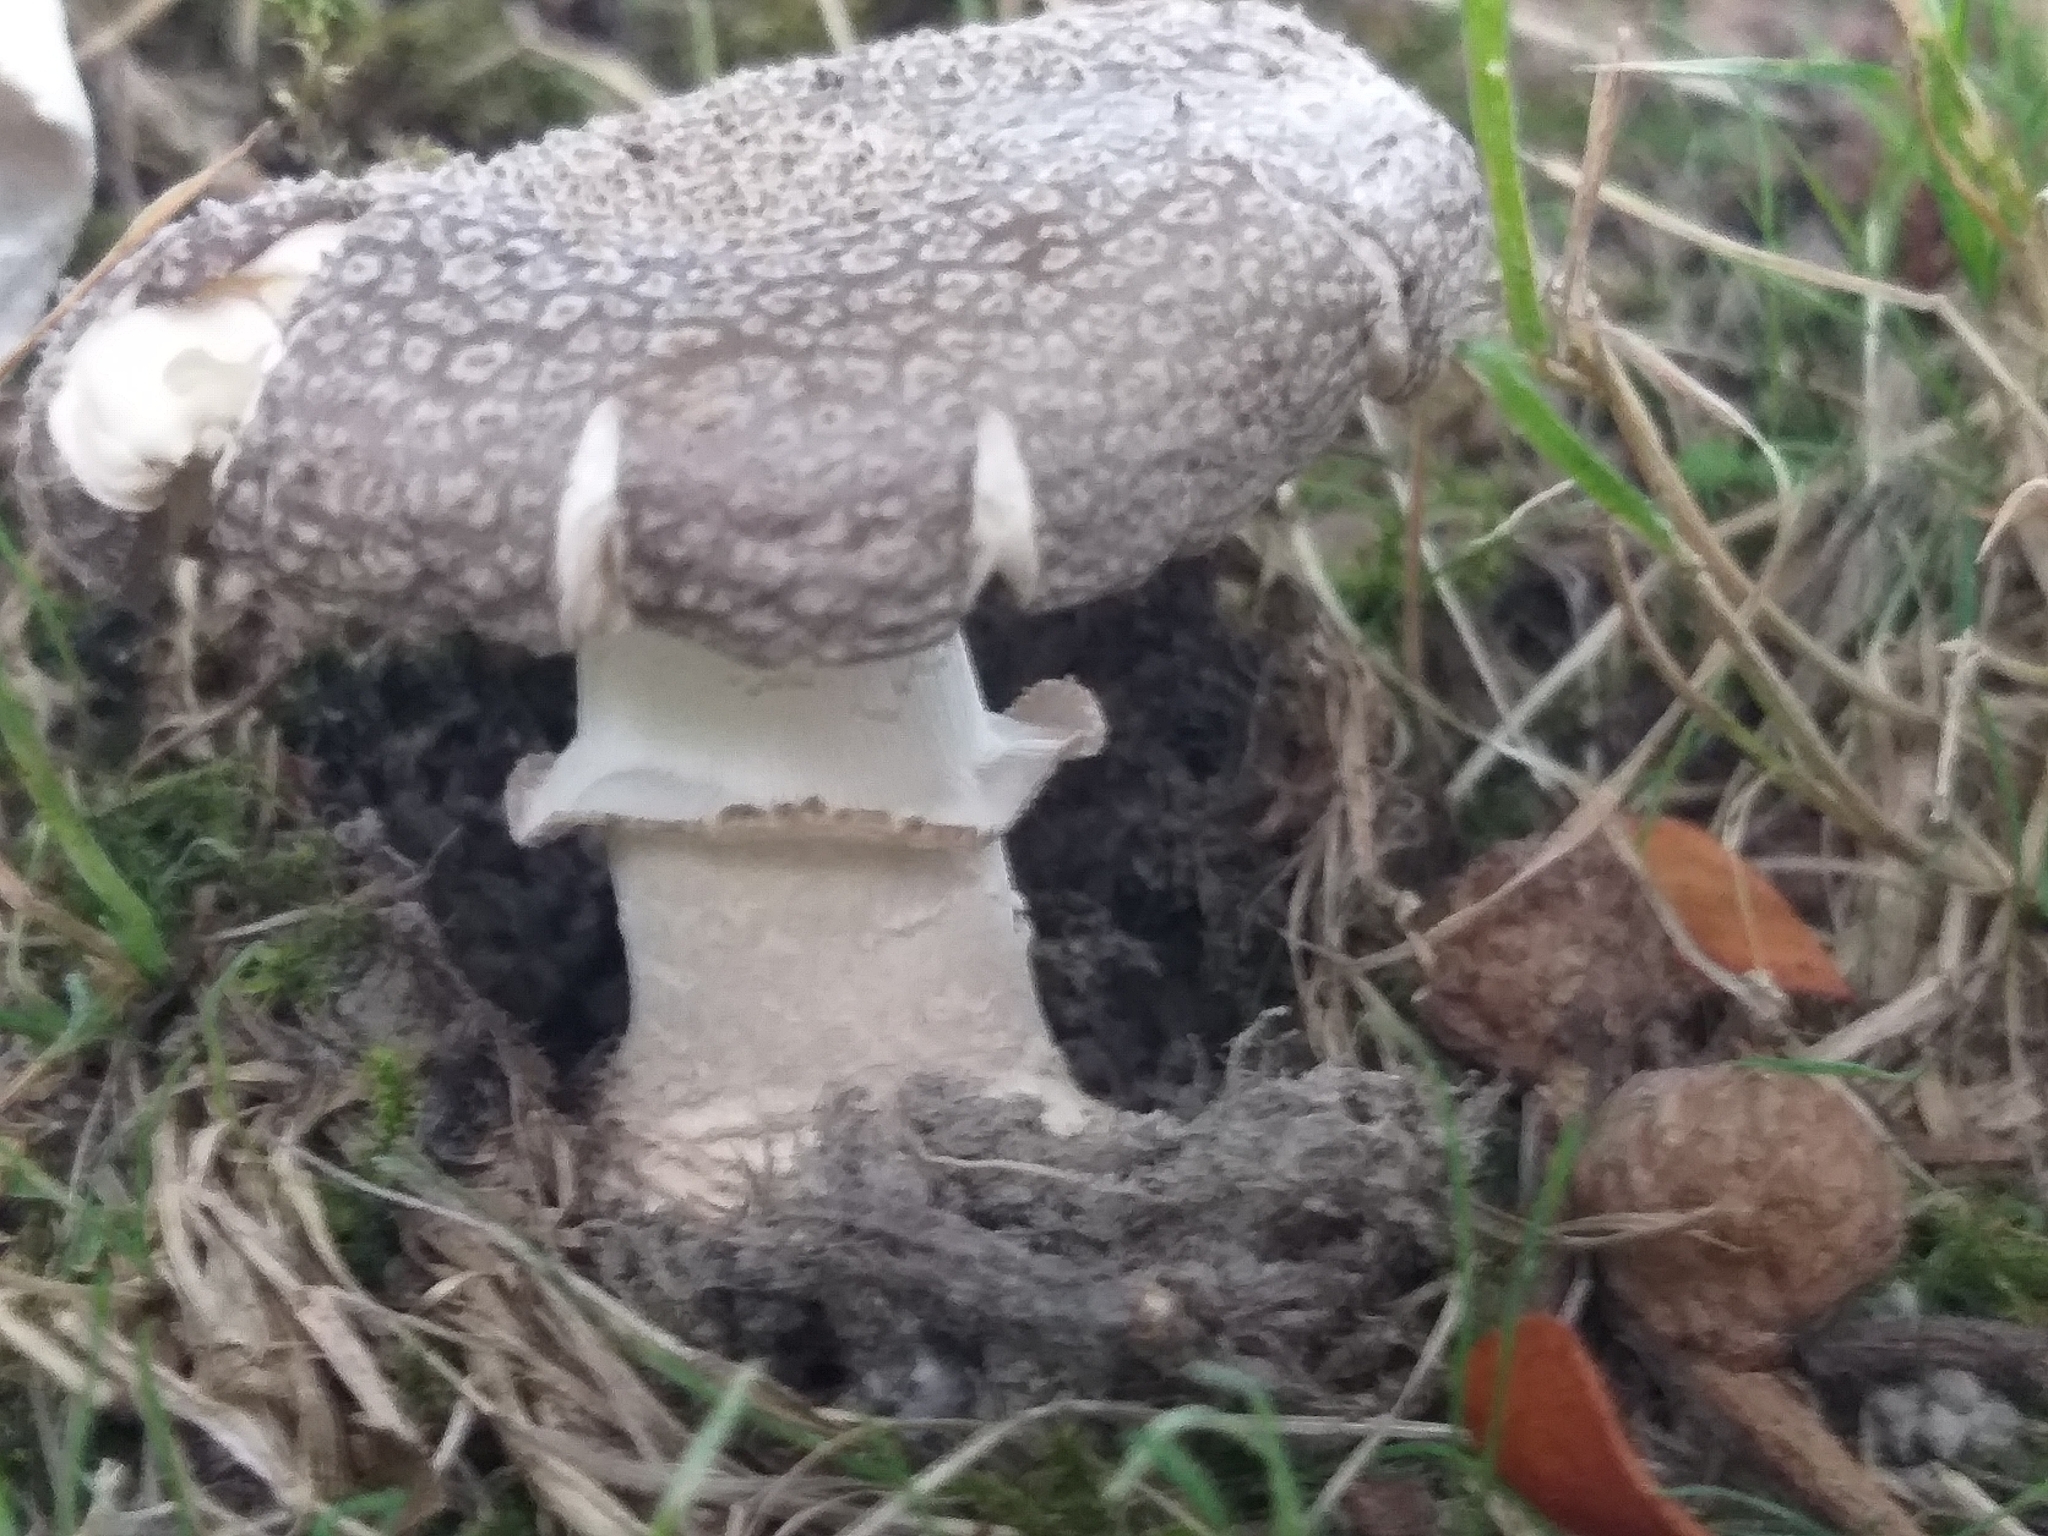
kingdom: Fungi
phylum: Basidiomycota
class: Agaricomycetes
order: Agaricales
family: Amanitaceae
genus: Amanita
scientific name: Amanita excelsa
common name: European false blusher
